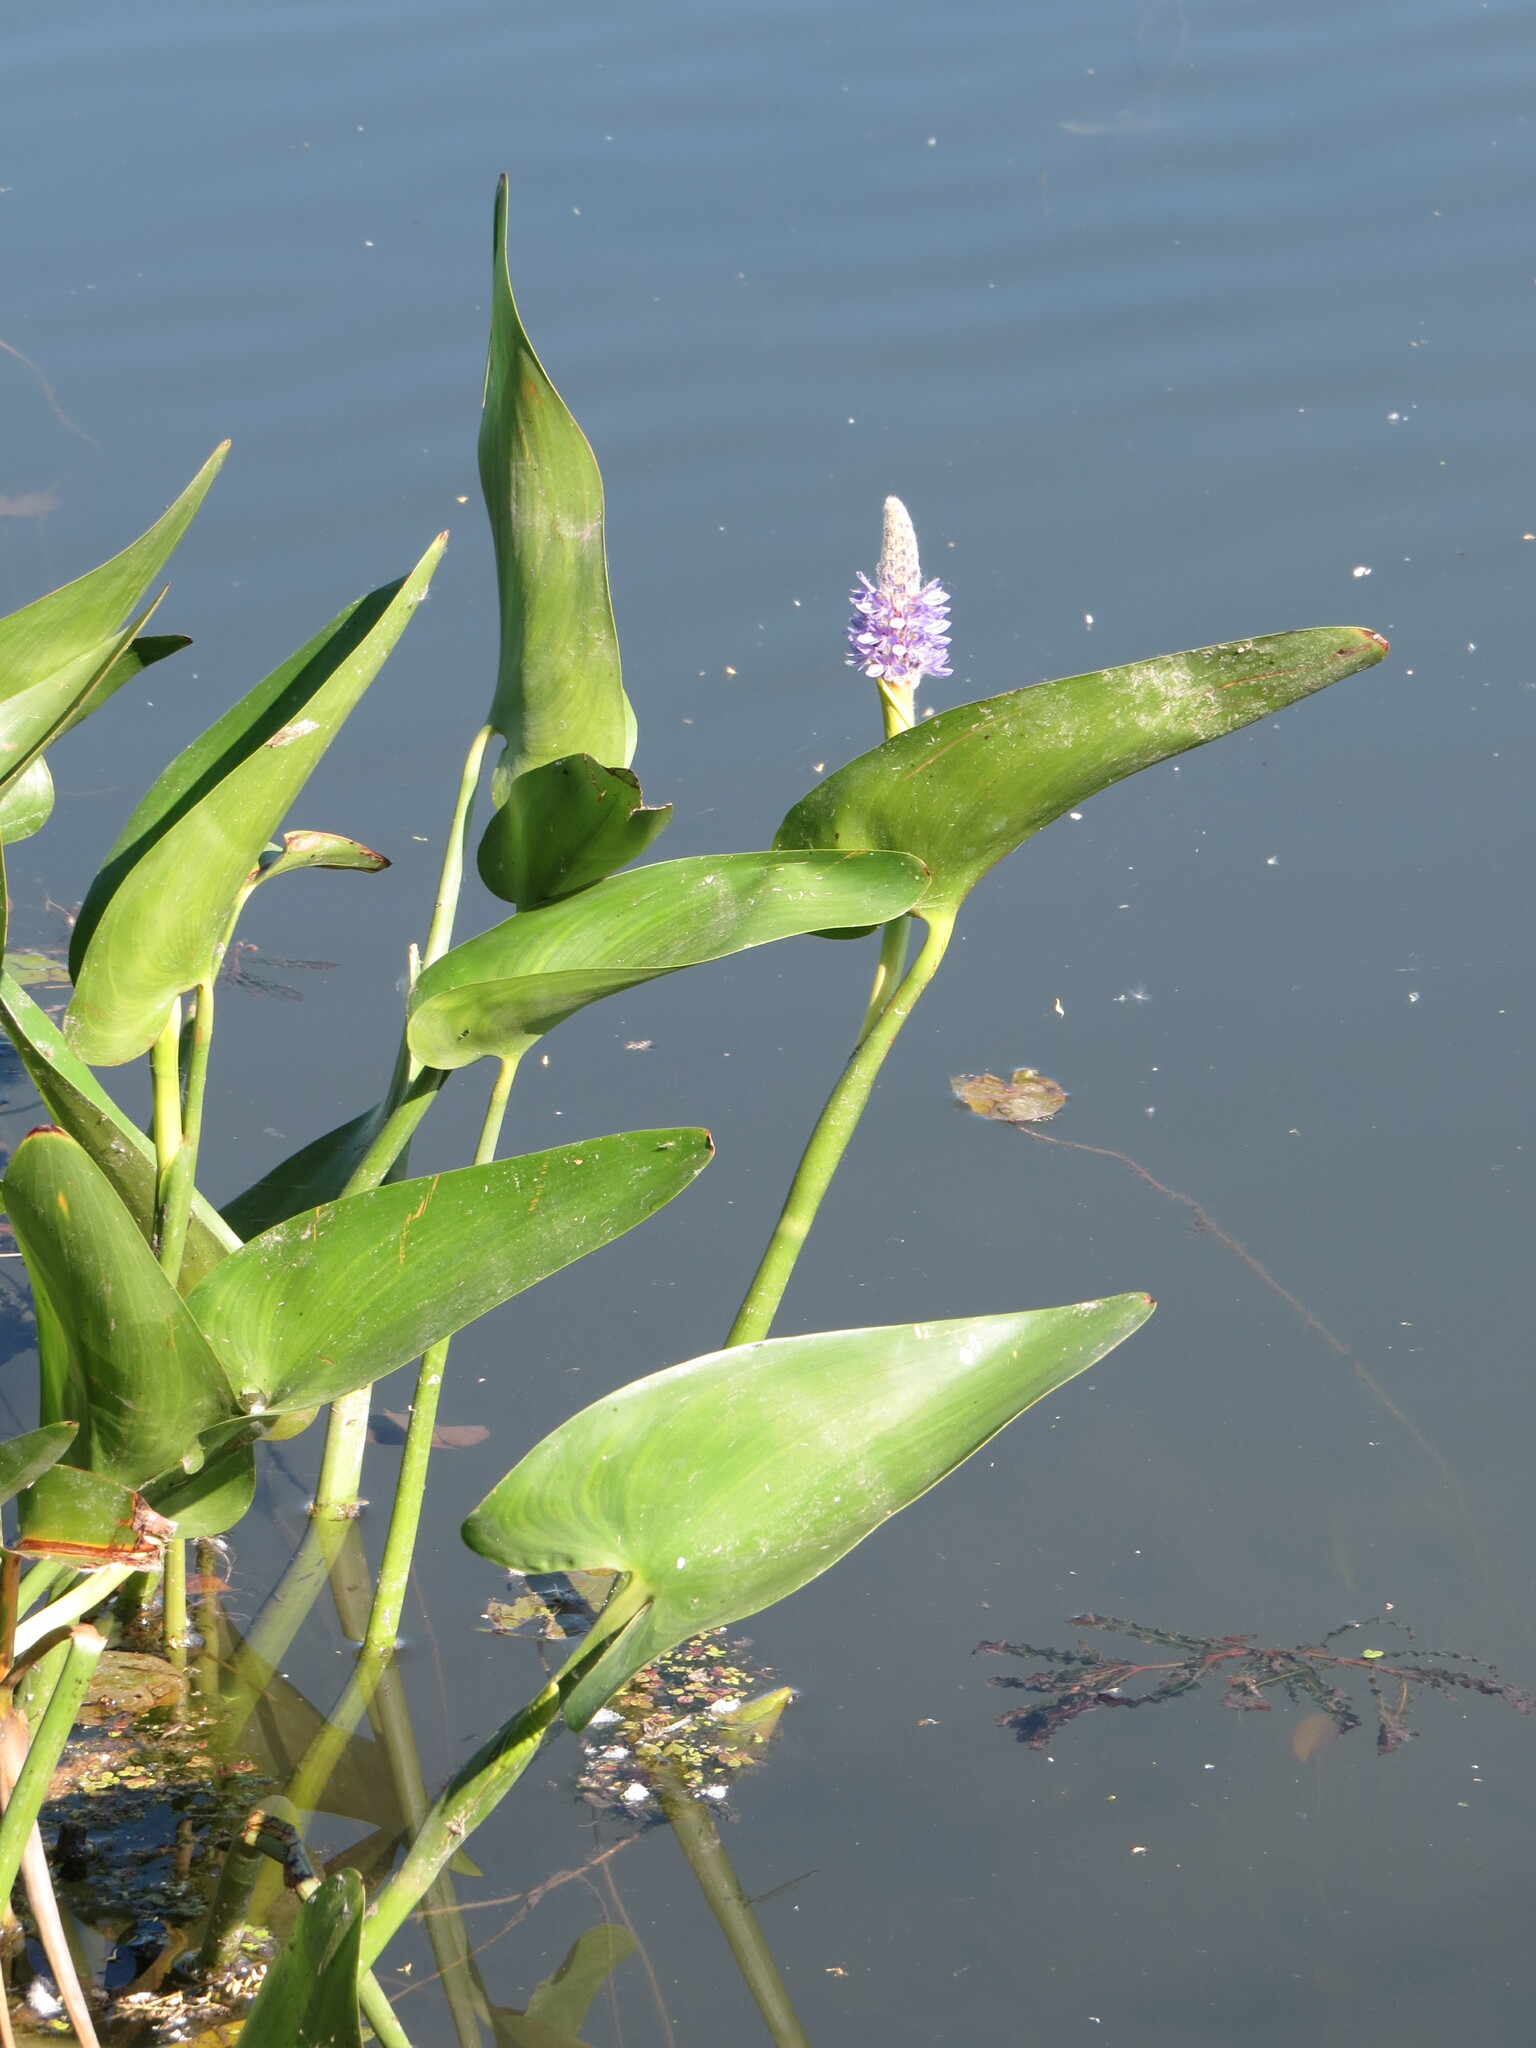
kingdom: Plantae
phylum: Tracheophyta
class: Liliopsida
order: Commelinales
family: Pontederiaceae
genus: Pontederia
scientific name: Pontederia cordata
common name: Pickerelweed
